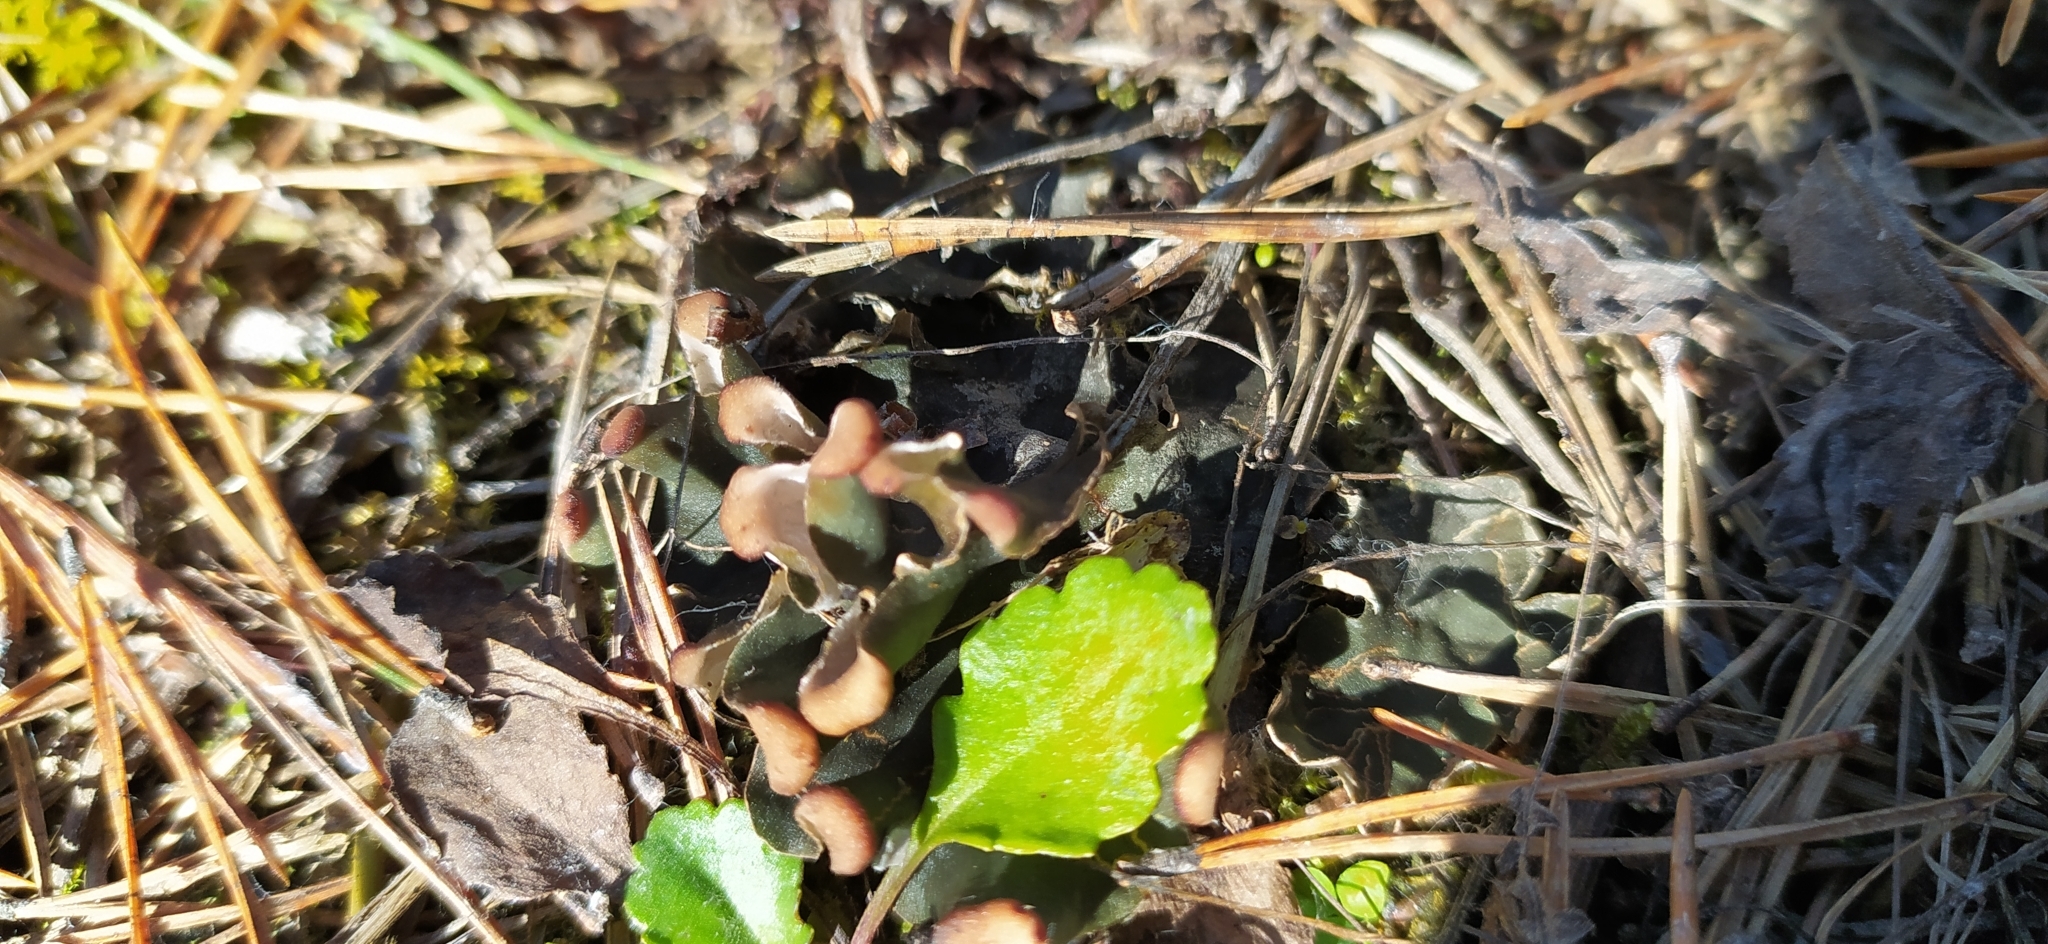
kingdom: Fungi
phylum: Ascomycota
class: Lecanoromycetes
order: Peltigerales
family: Peltigeraceae
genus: Peltigera
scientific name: Peltigera rufescens
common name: Field dog lichen
